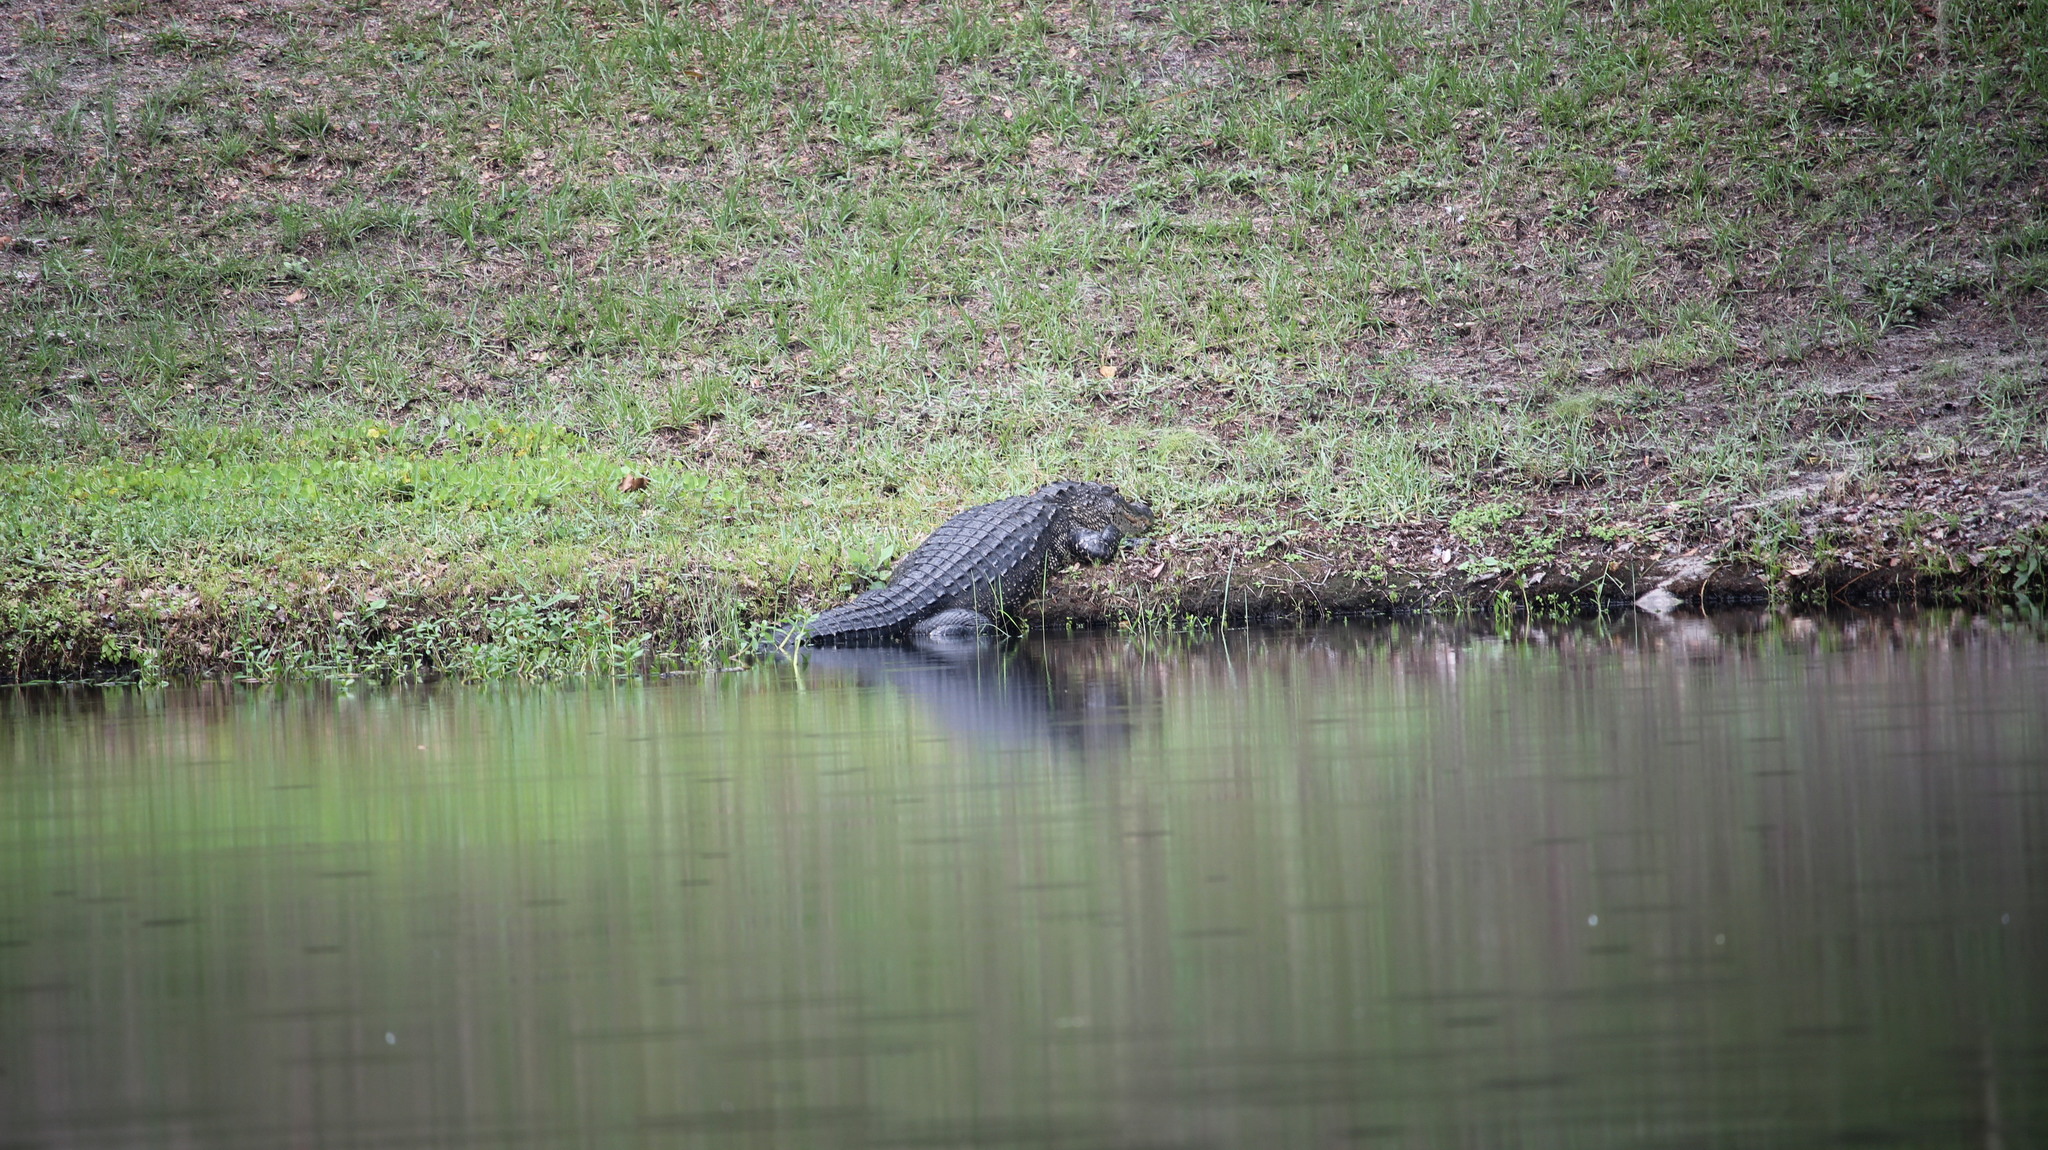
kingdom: Animalia
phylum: Chordata
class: Crocodylia
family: Alligatoridae
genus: Alligator
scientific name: Alligator mississippiensis
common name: American alligator
